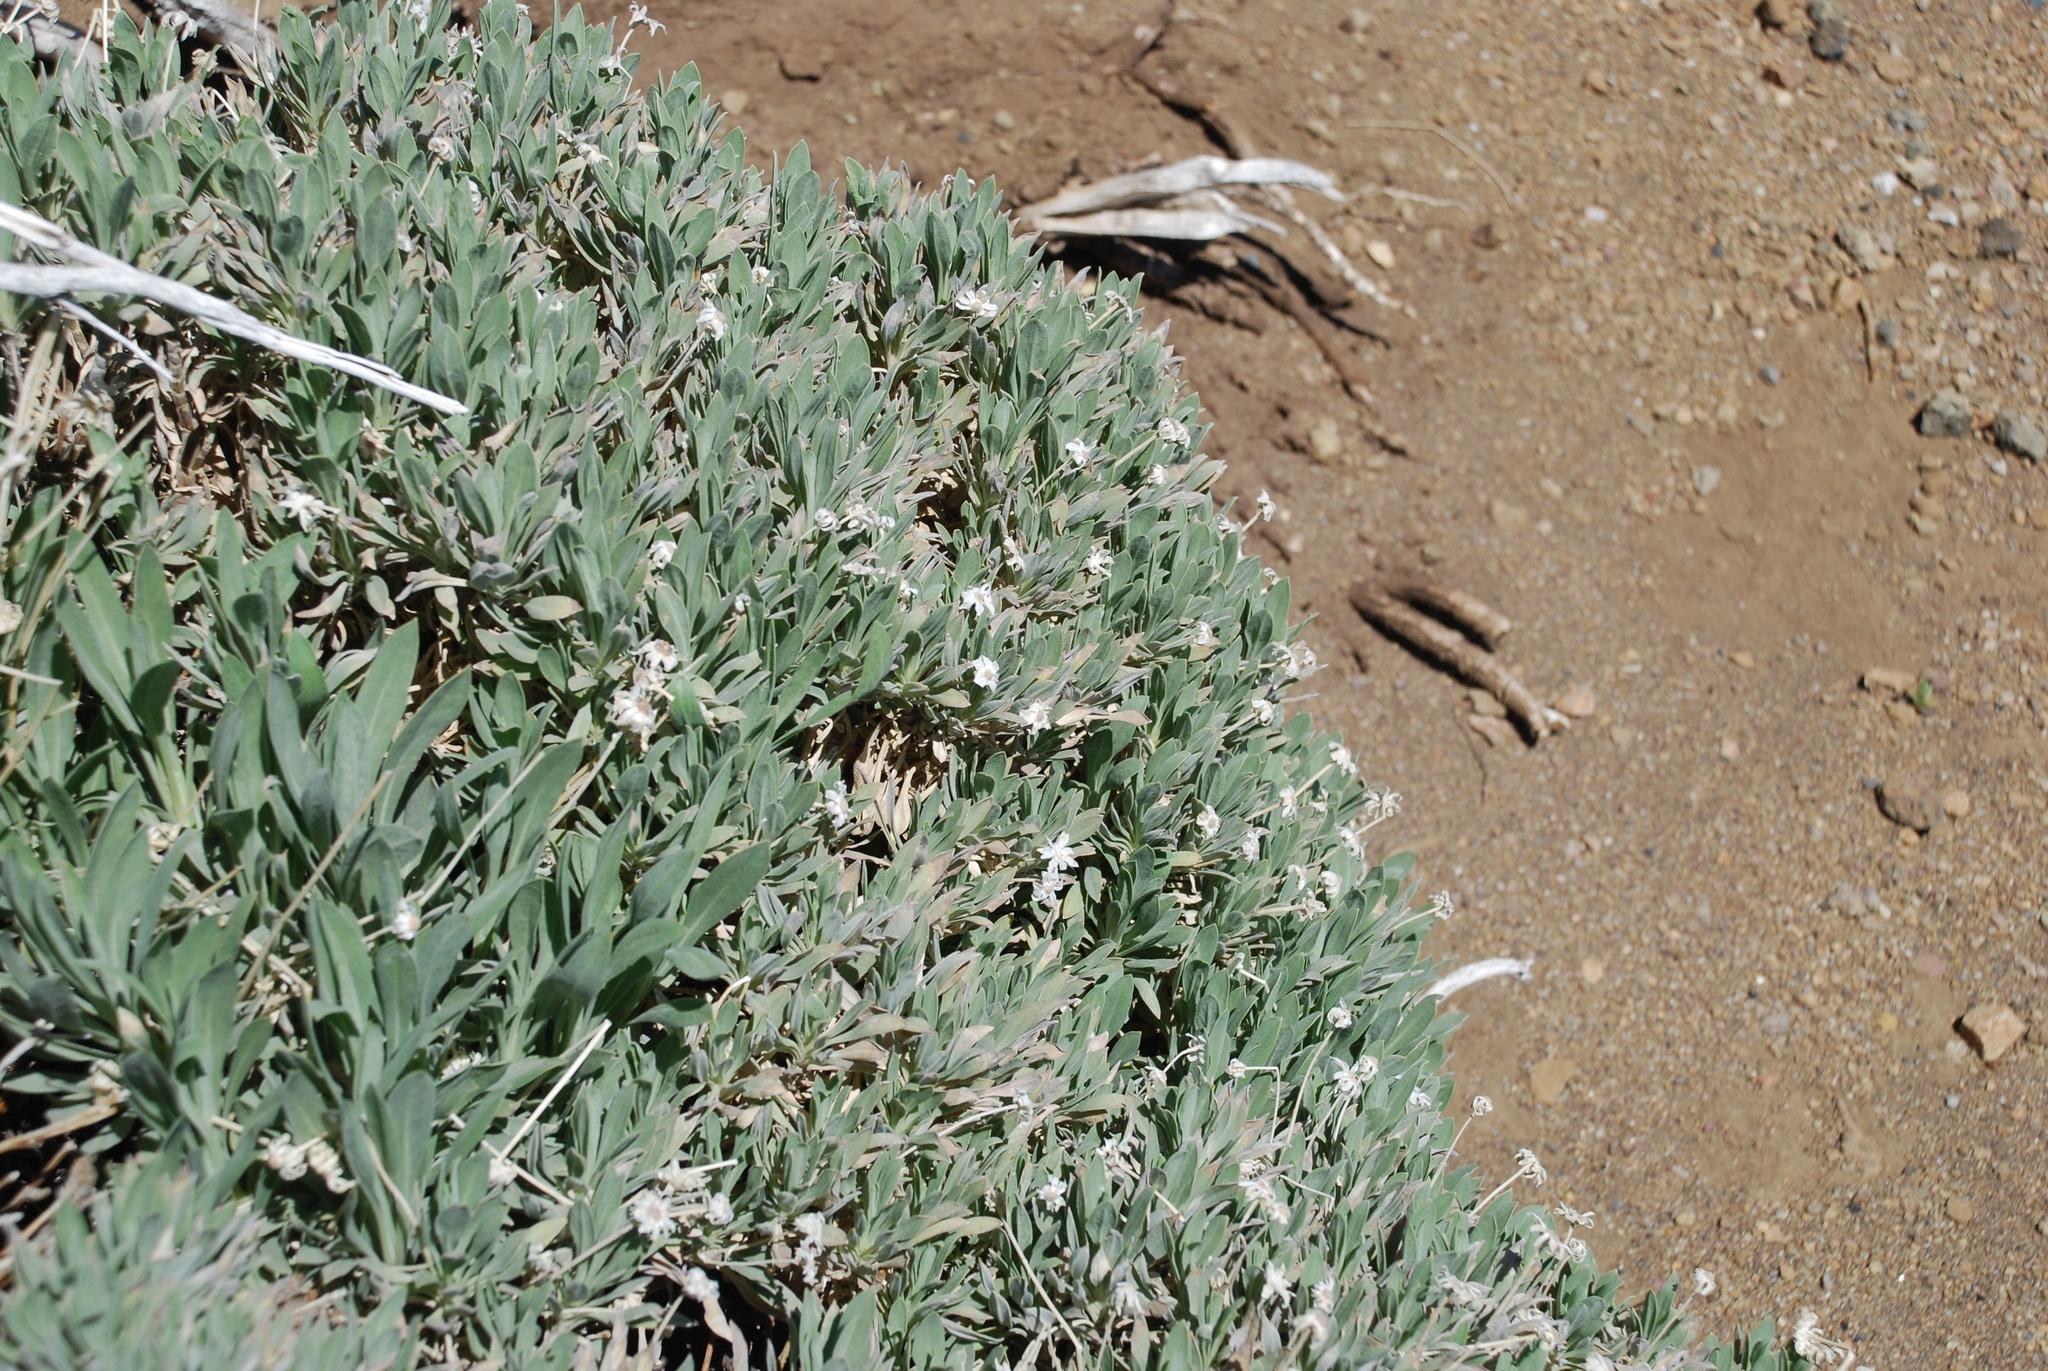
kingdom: Plantae
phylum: Tracheophyta
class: Magnoliopsida
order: Dipsacales
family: Caprifoliaceae
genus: Pterocephalus
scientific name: Pterocephalus lasiospermus
